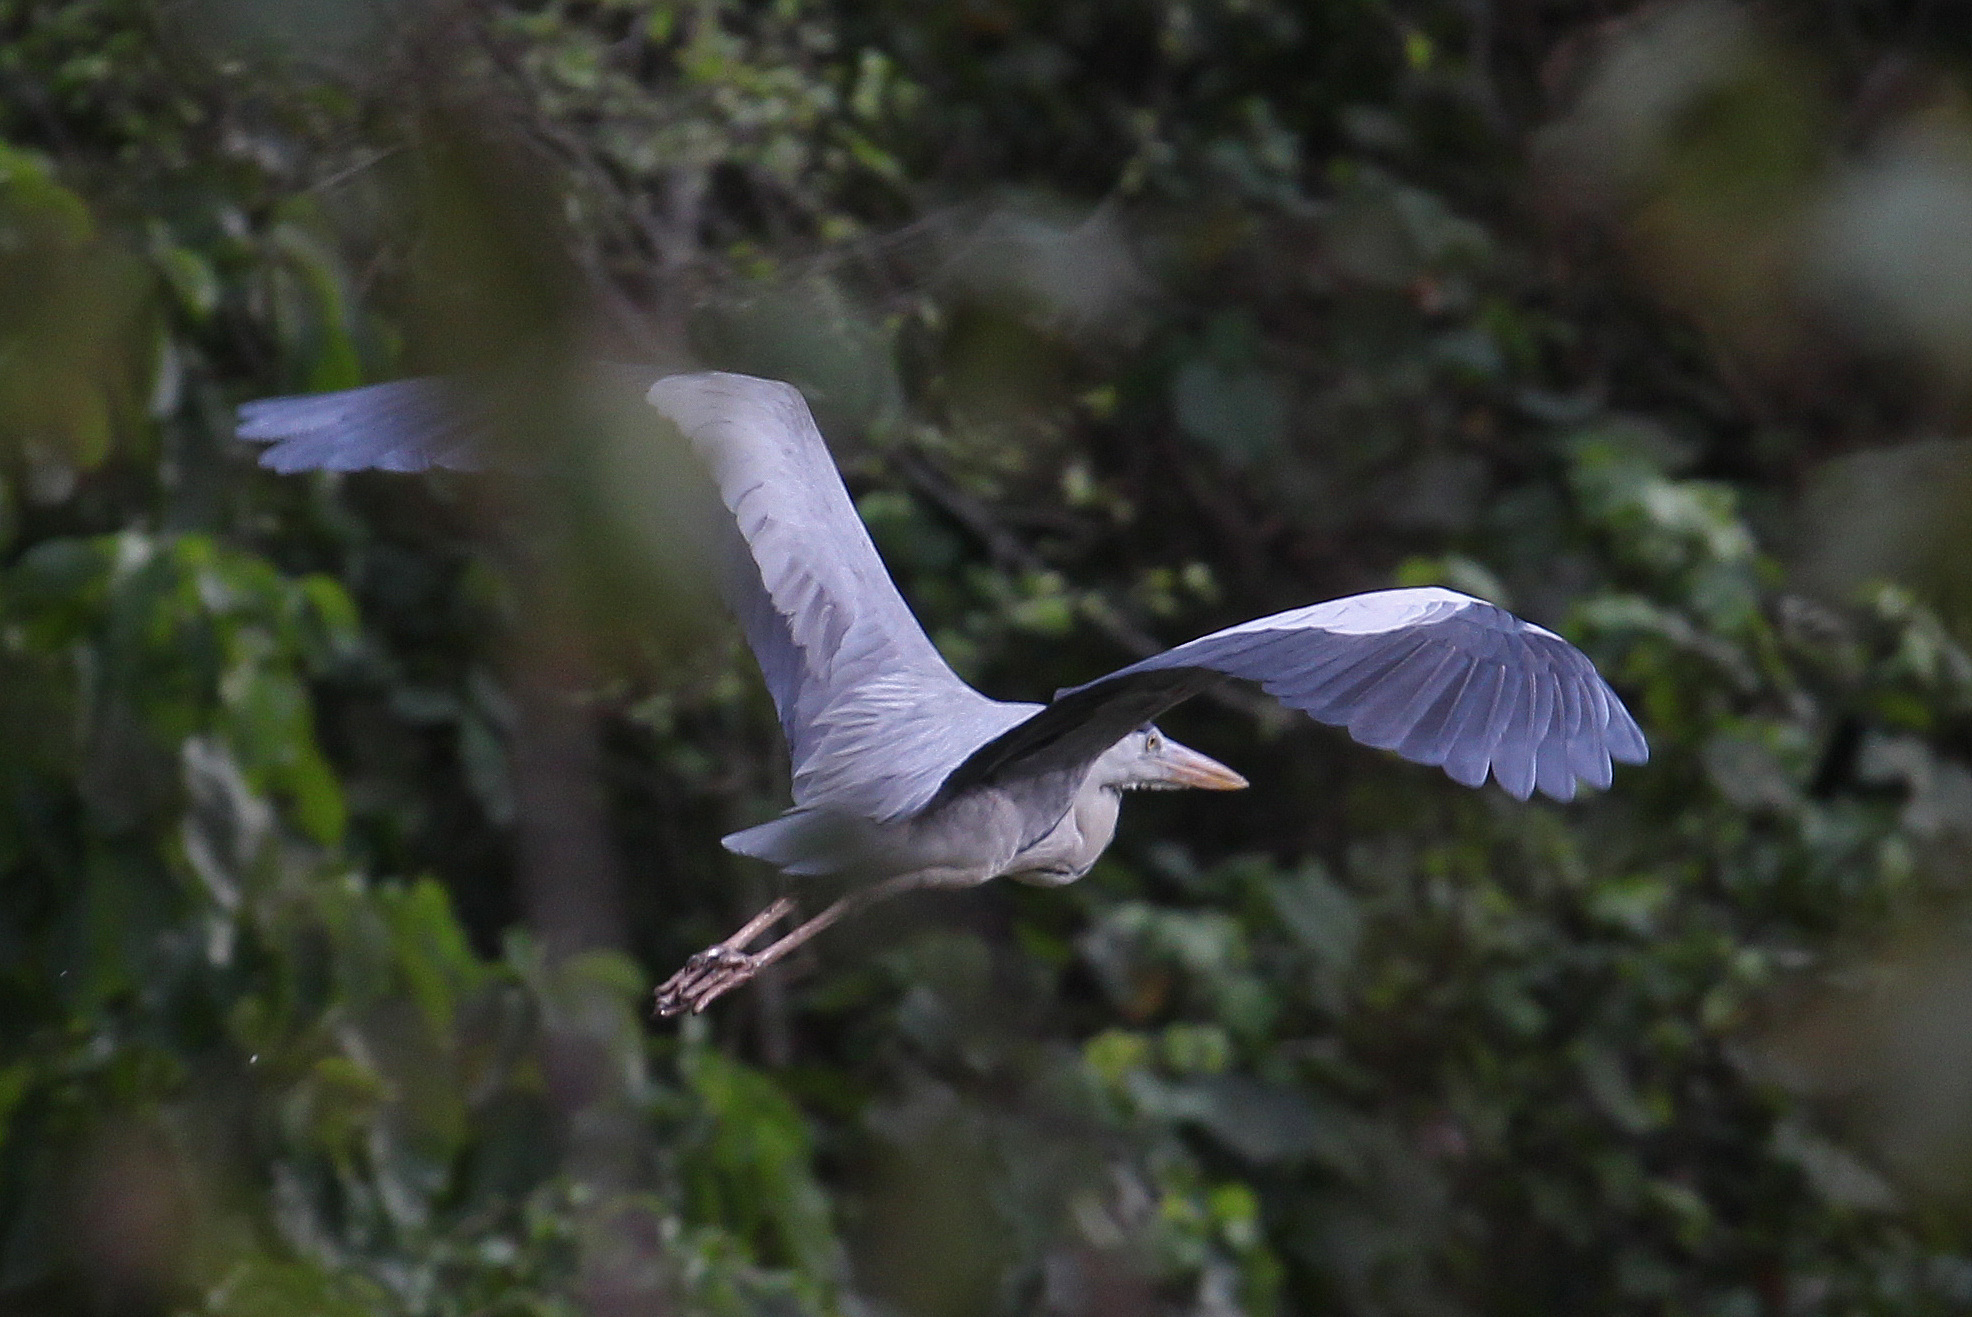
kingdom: Animalia
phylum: Chordata
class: Aves
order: Pelecaniformes
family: Ardeidae
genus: Ardea
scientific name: Ardea cinerea
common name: Grey heron
